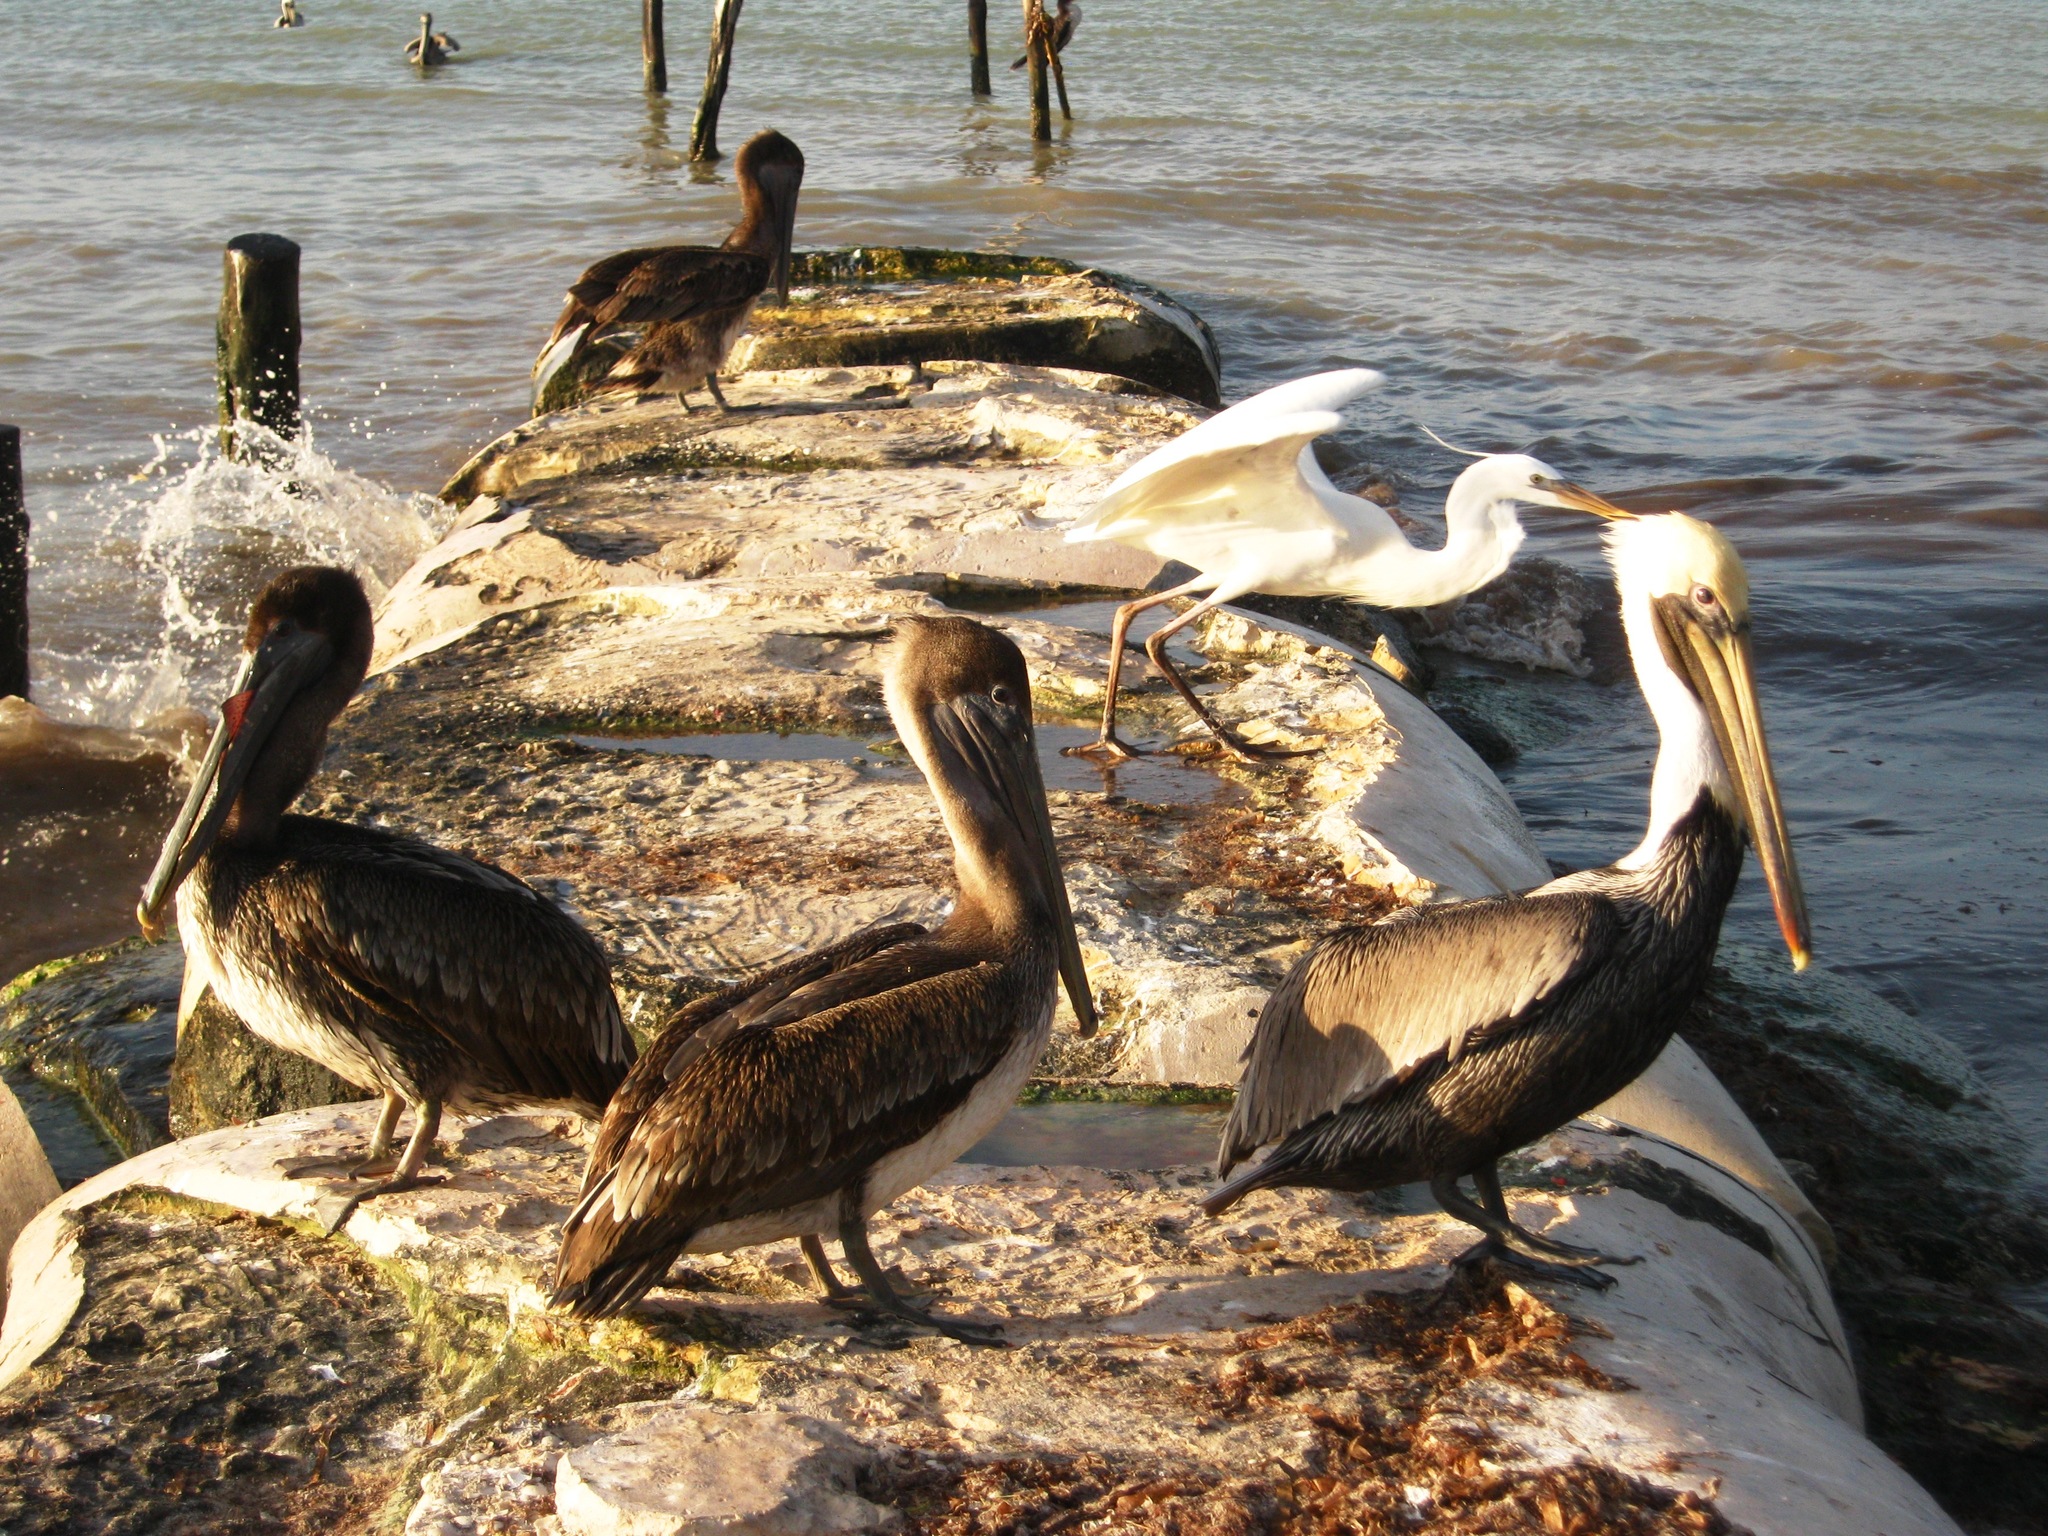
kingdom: Animalia
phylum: Chordata
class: Aves
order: Pelecaniformes
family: Pelecanidae
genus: Pelecanus
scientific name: Pelecanus occidentalis
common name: Brown pelican
